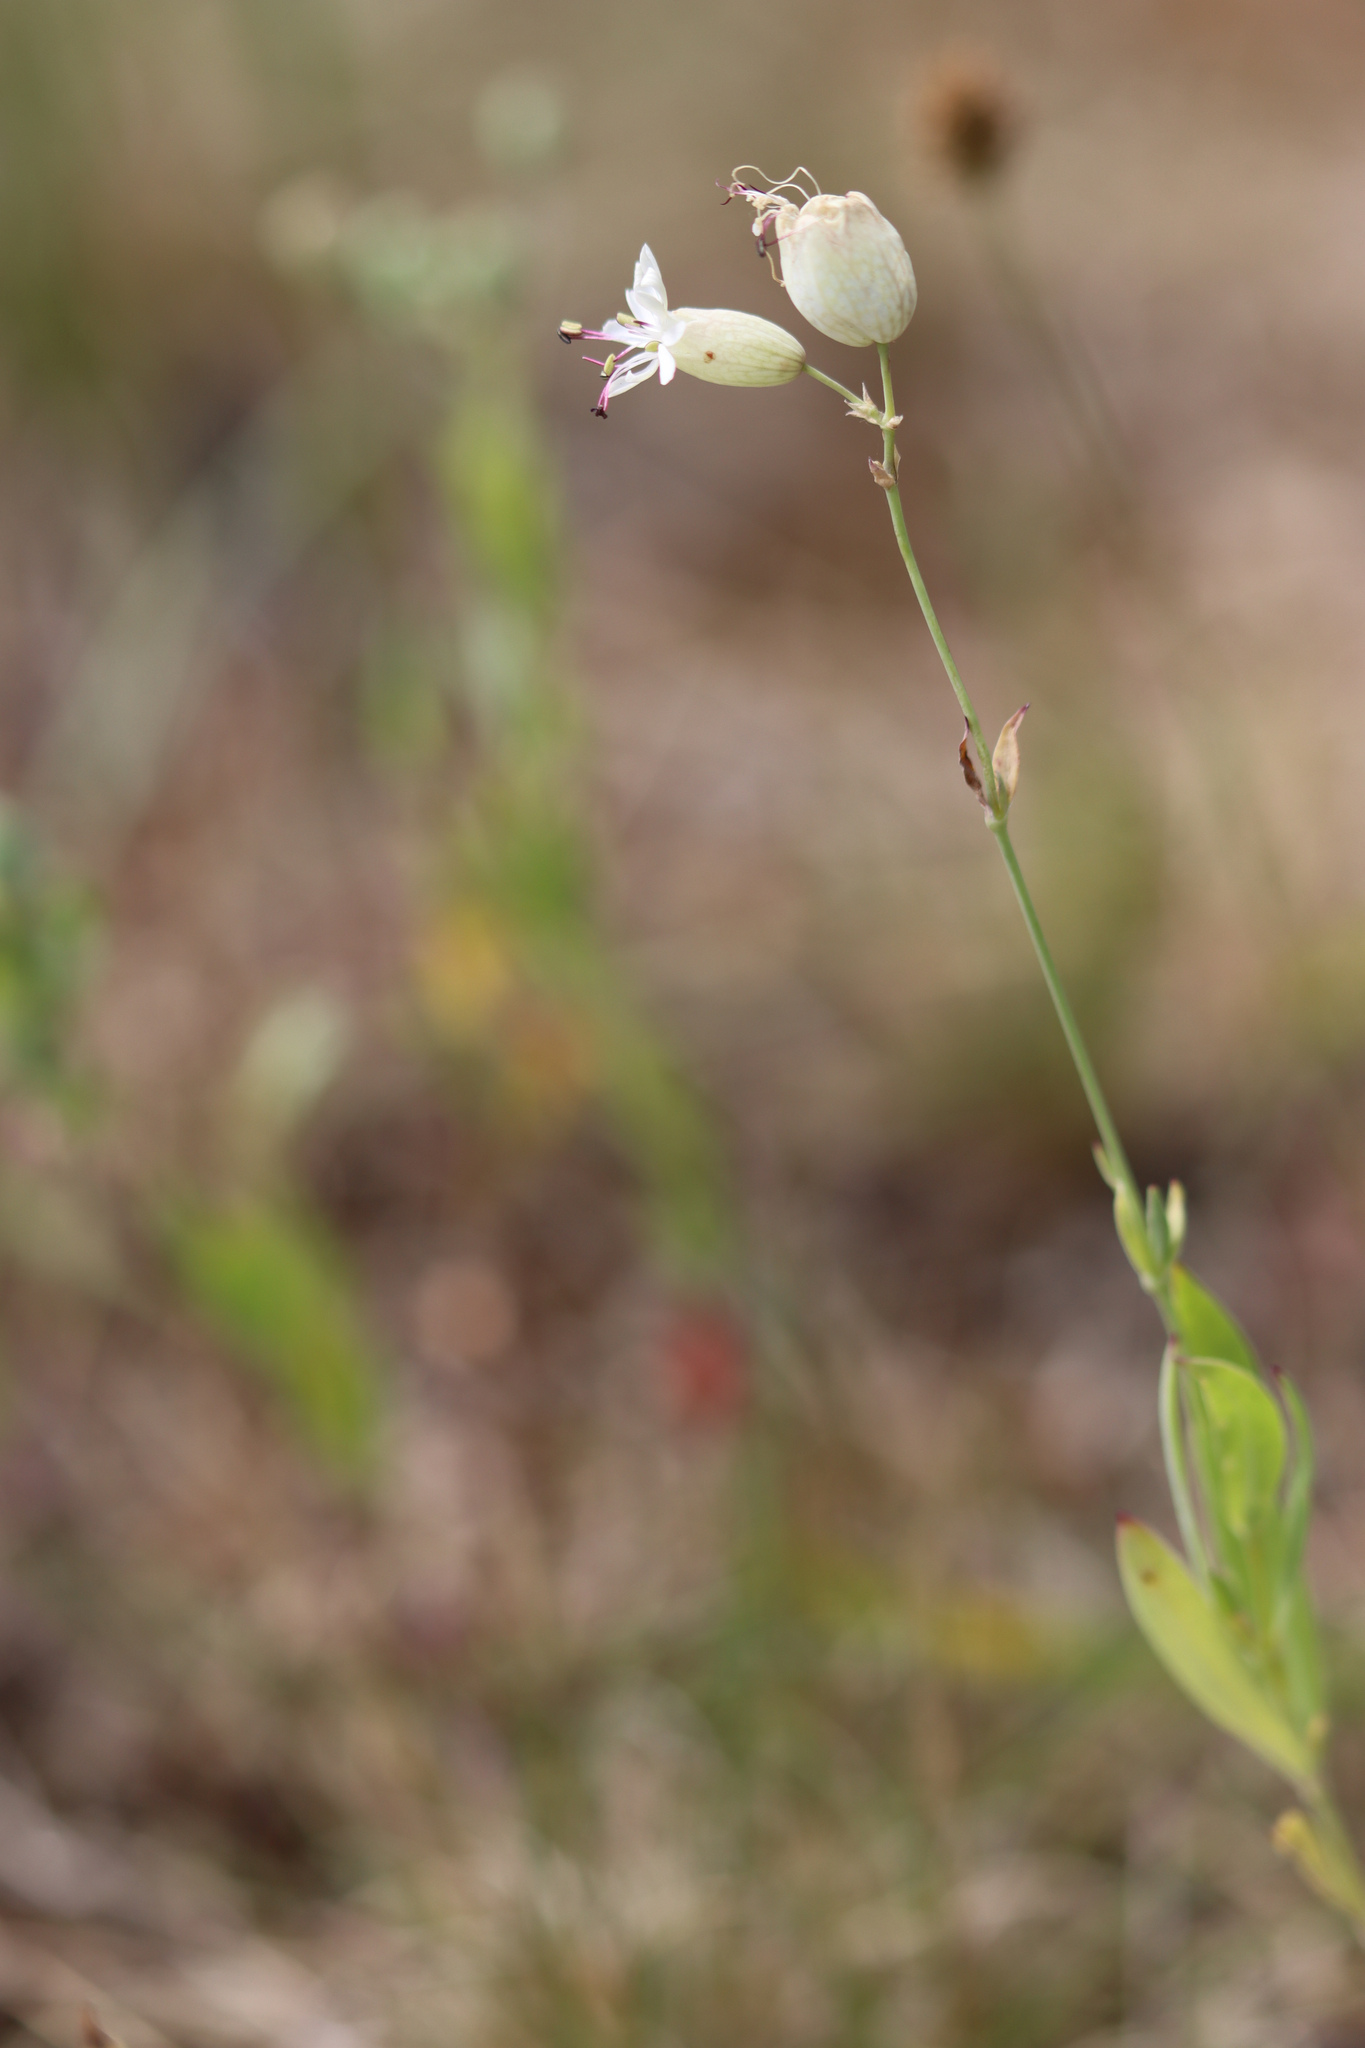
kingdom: Plantae
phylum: Tracheophyta
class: Magnoliopsida
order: Caryophyllales
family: Caryophyllaceae
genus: Silene
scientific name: Silene vulgaris
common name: Bladder campion
